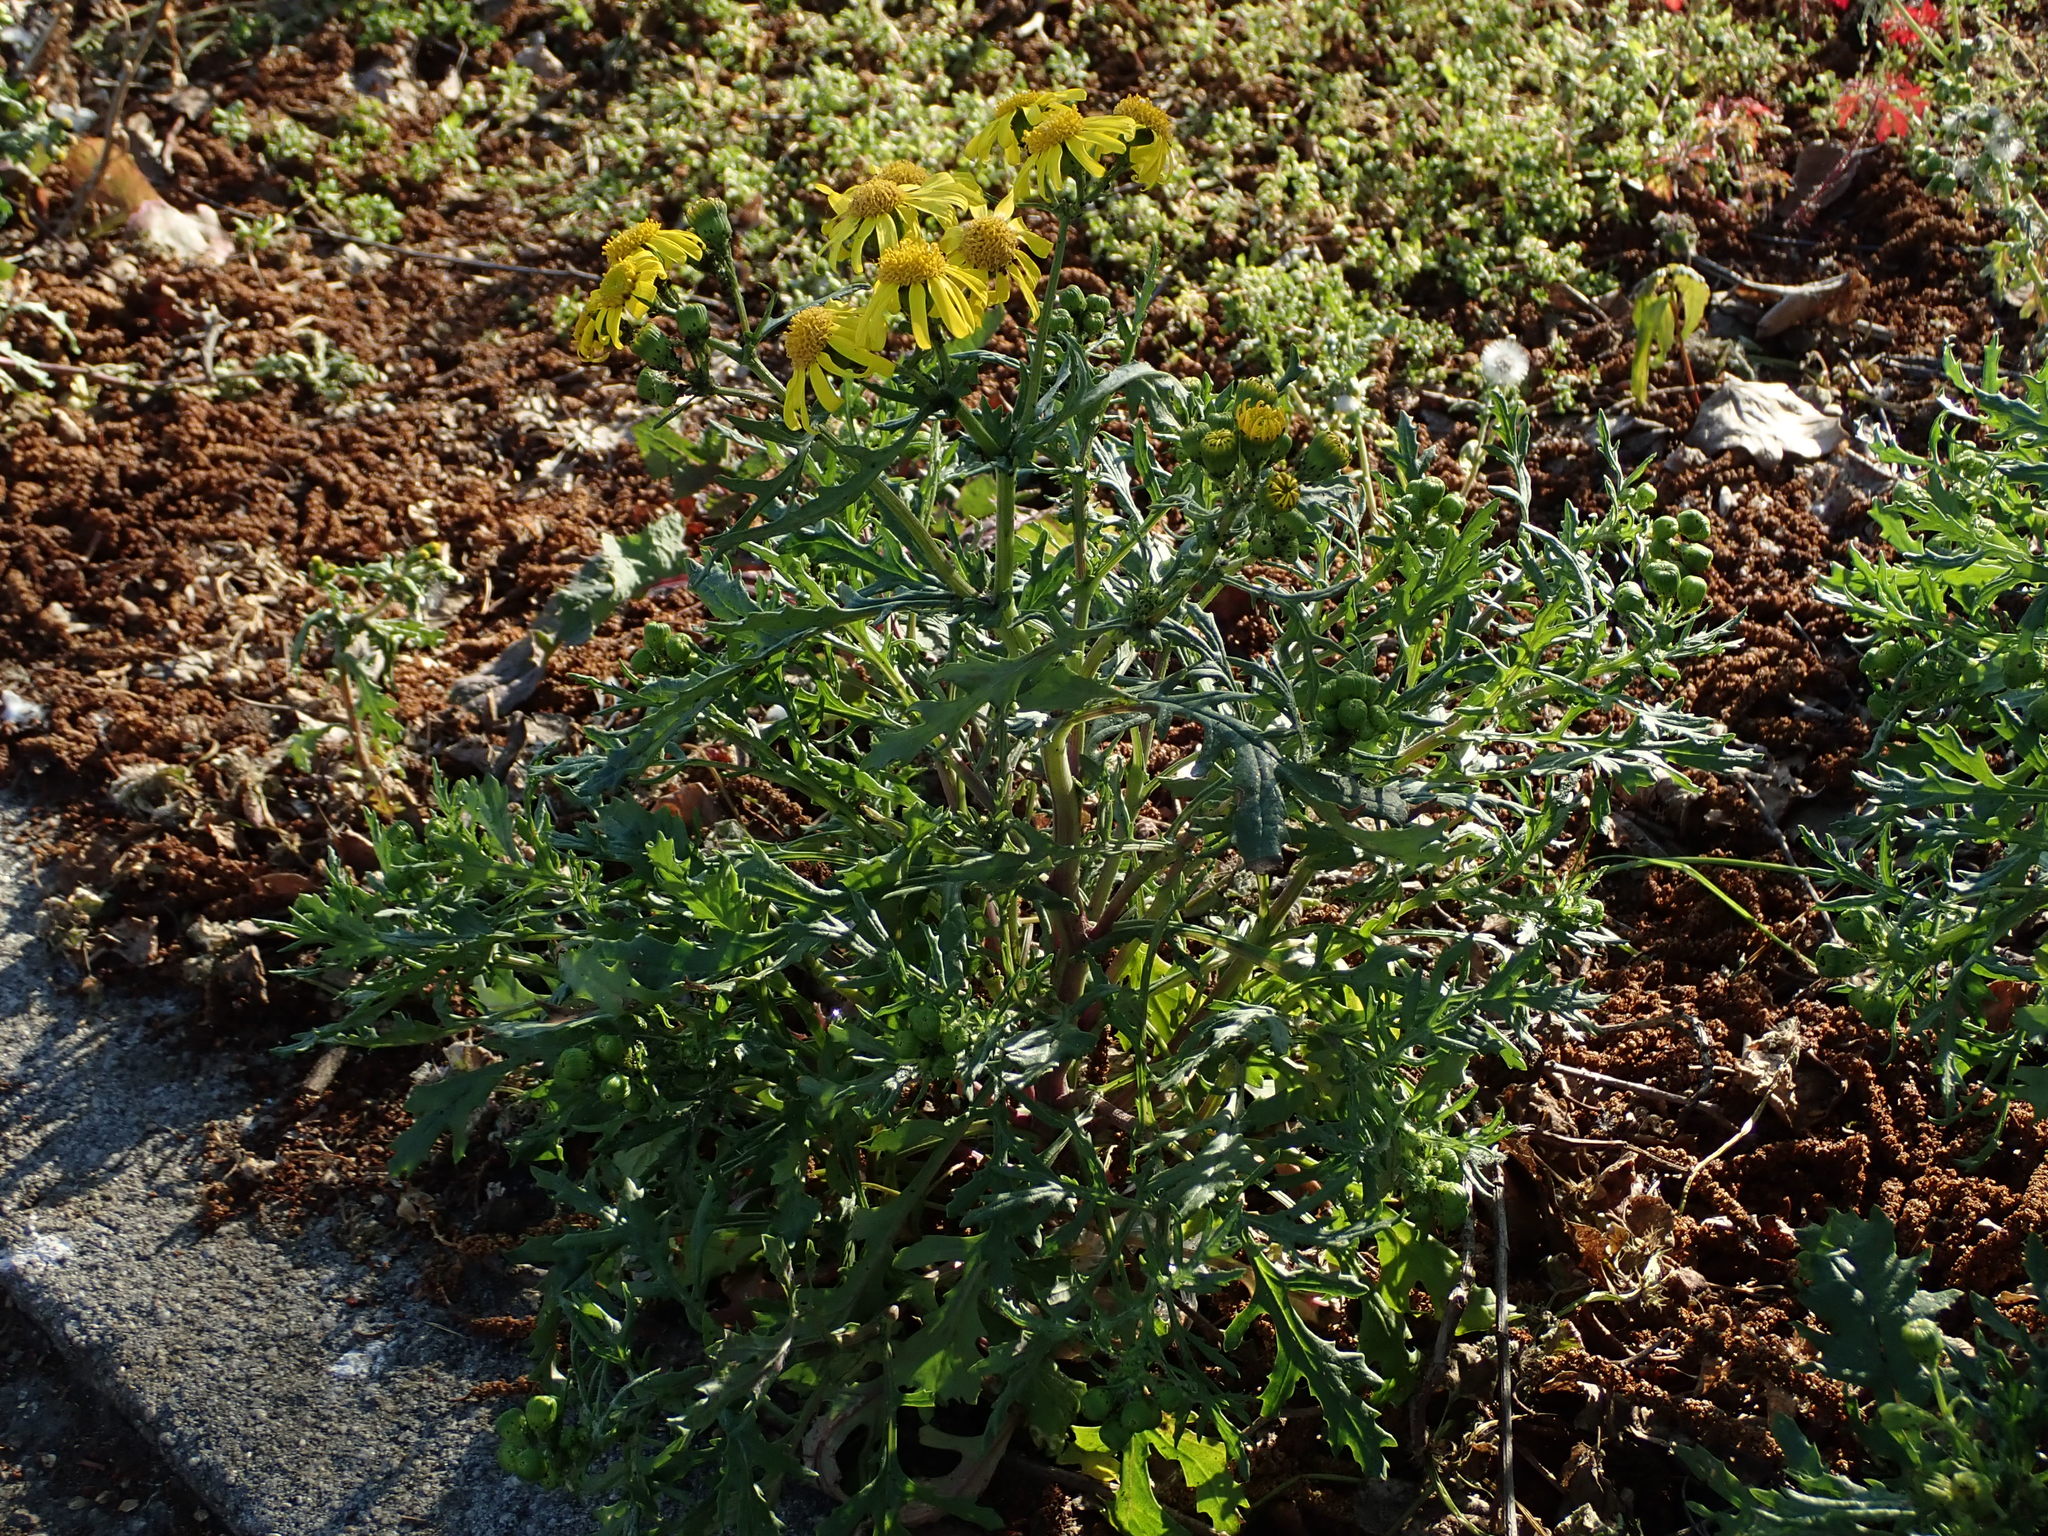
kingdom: Plantae
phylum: Tracheophyta
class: Magnoliopsida
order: Asterales
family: Asteraceae
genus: Senecio
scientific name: Senecio squalidus
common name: Oxford ragwort
